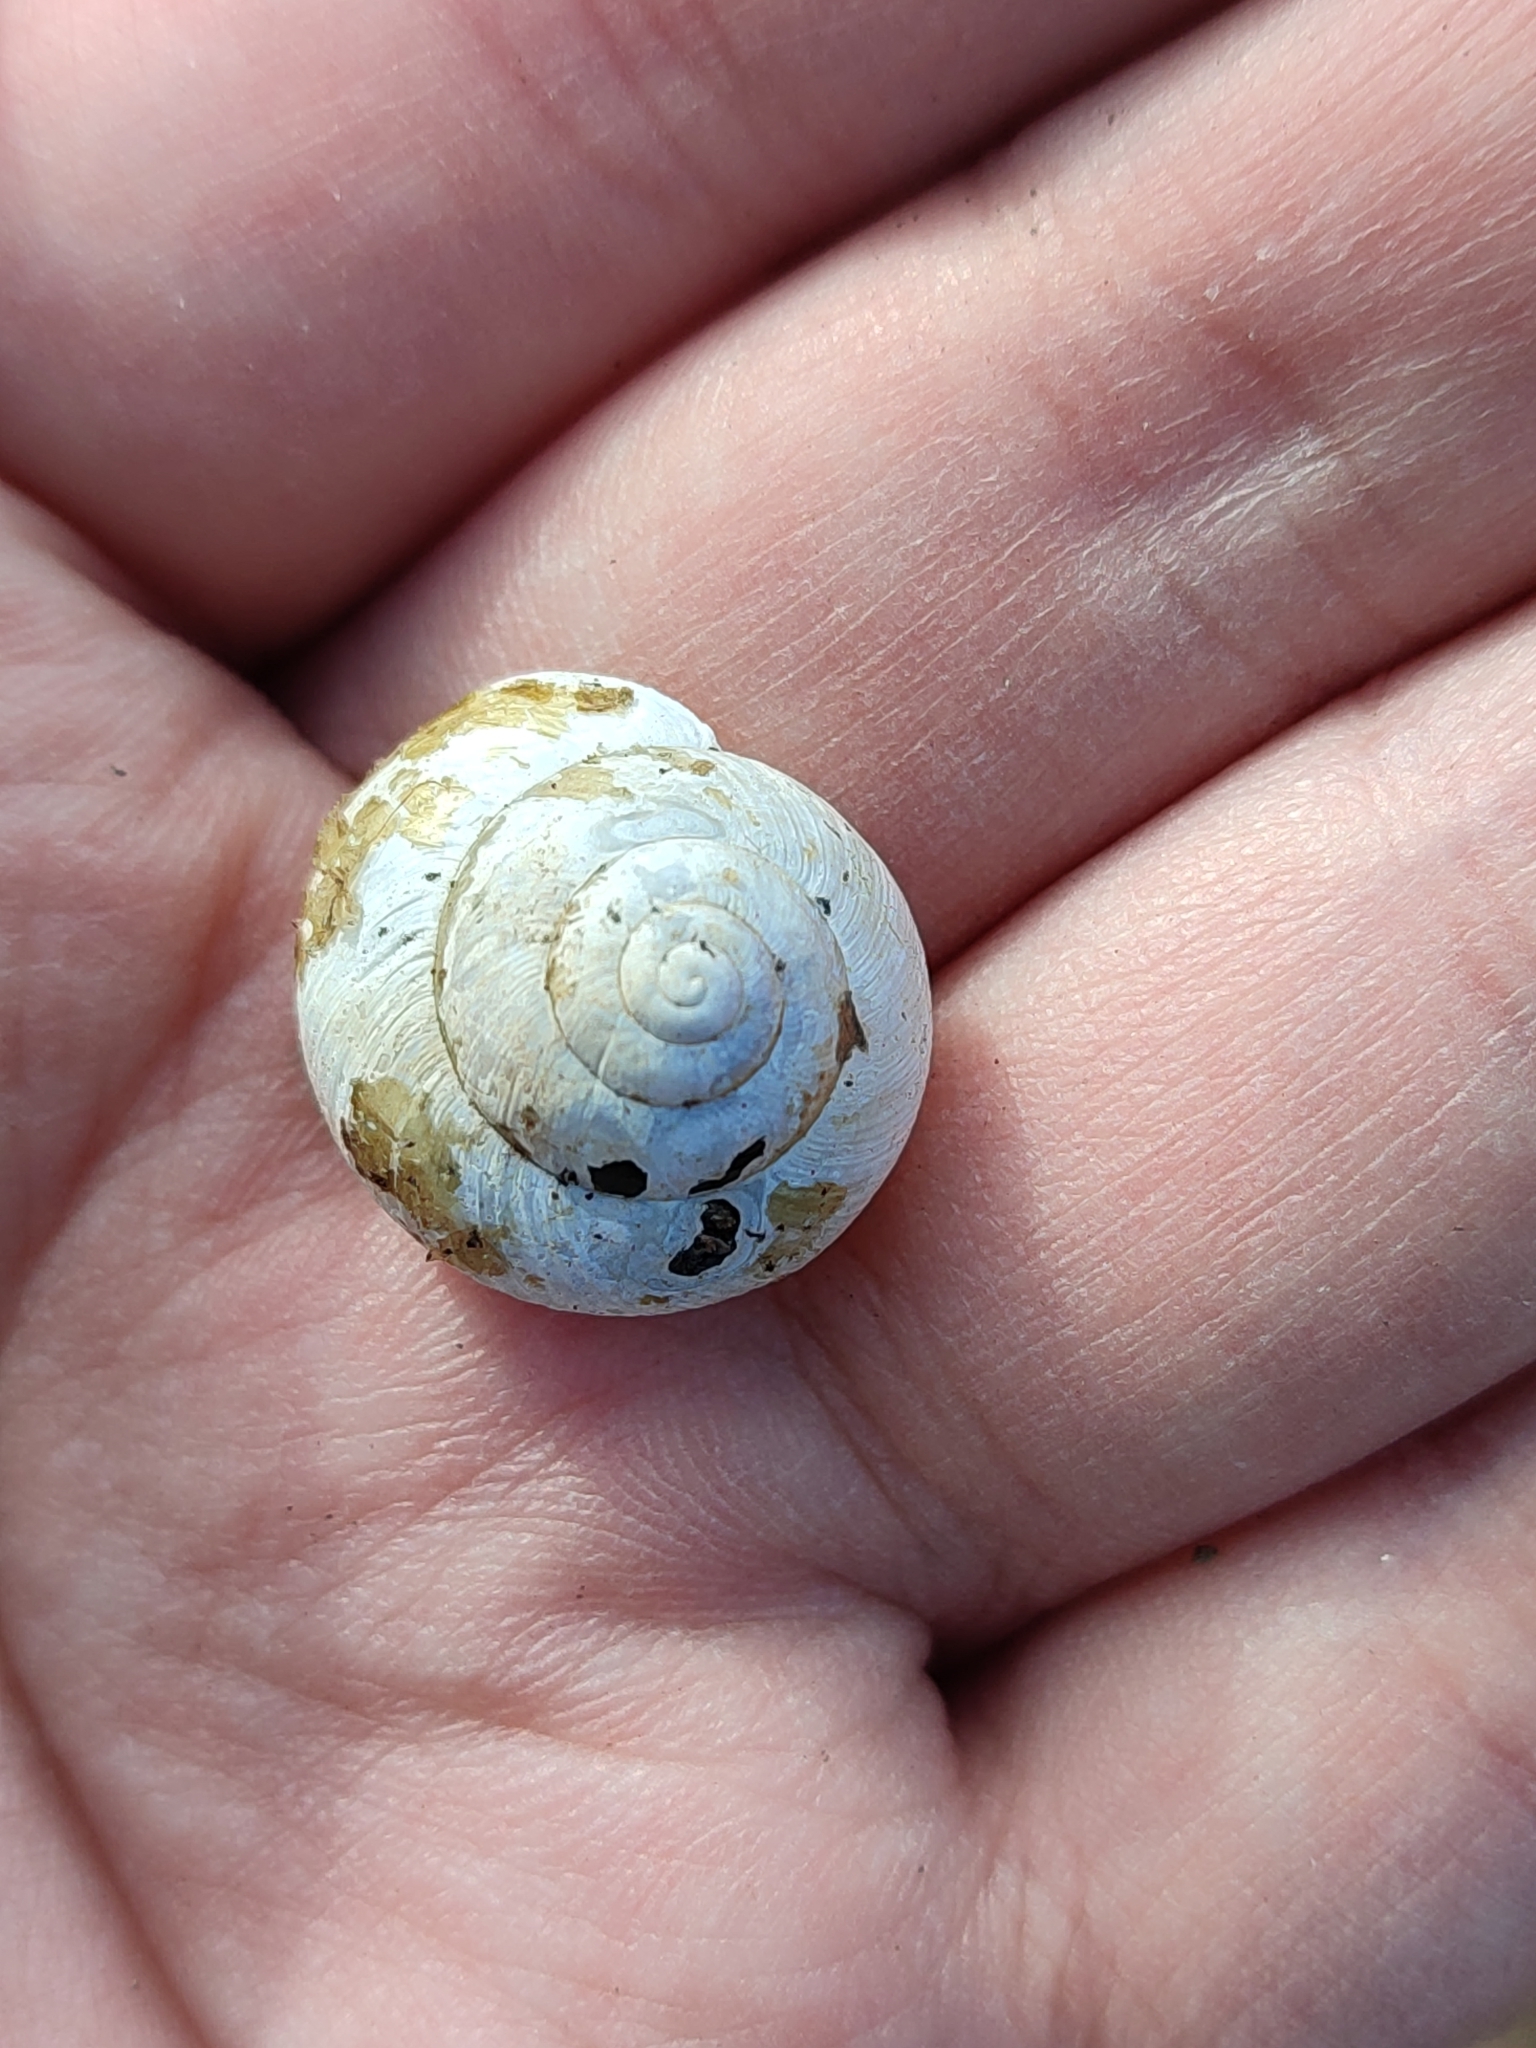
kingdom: Animalia
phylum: Mollusca
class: Gastropoda
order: Stylommatophora
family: Camaenidae
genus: Fruticicola
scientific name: Fruticicola fruticum
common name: Bush snail
